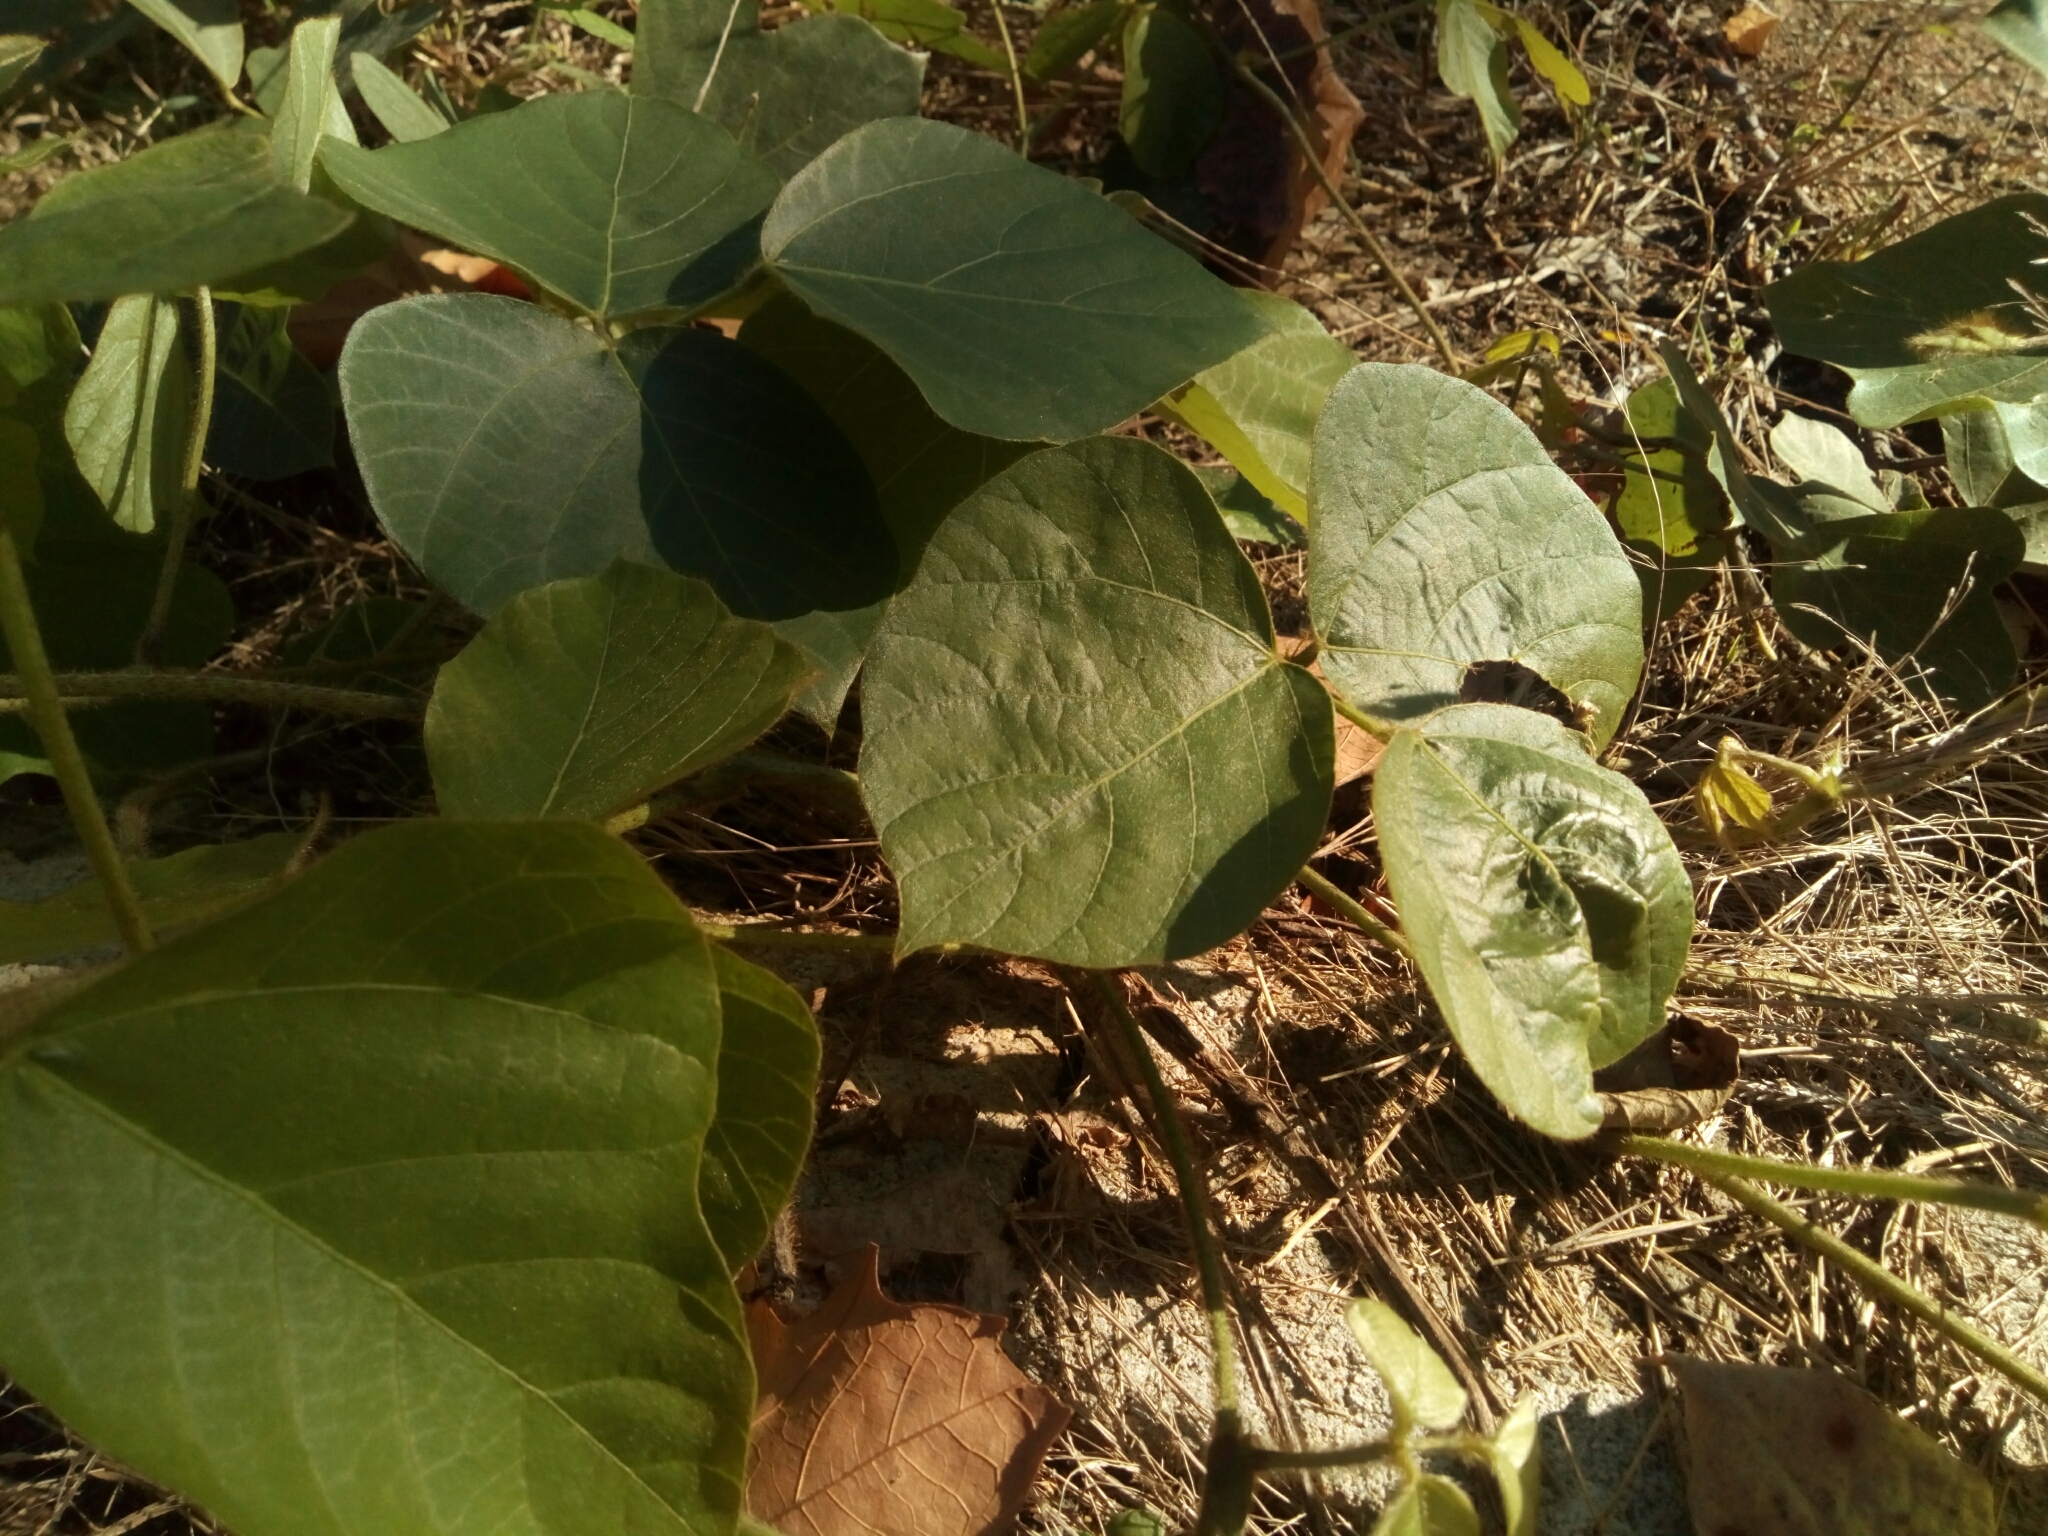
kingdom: Plantae
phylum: Tracheophyta
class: Magnoliopsida
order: Fabales
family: Fabaceae
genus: Pueraria
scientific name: Pueraria montana
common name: Kudzu
